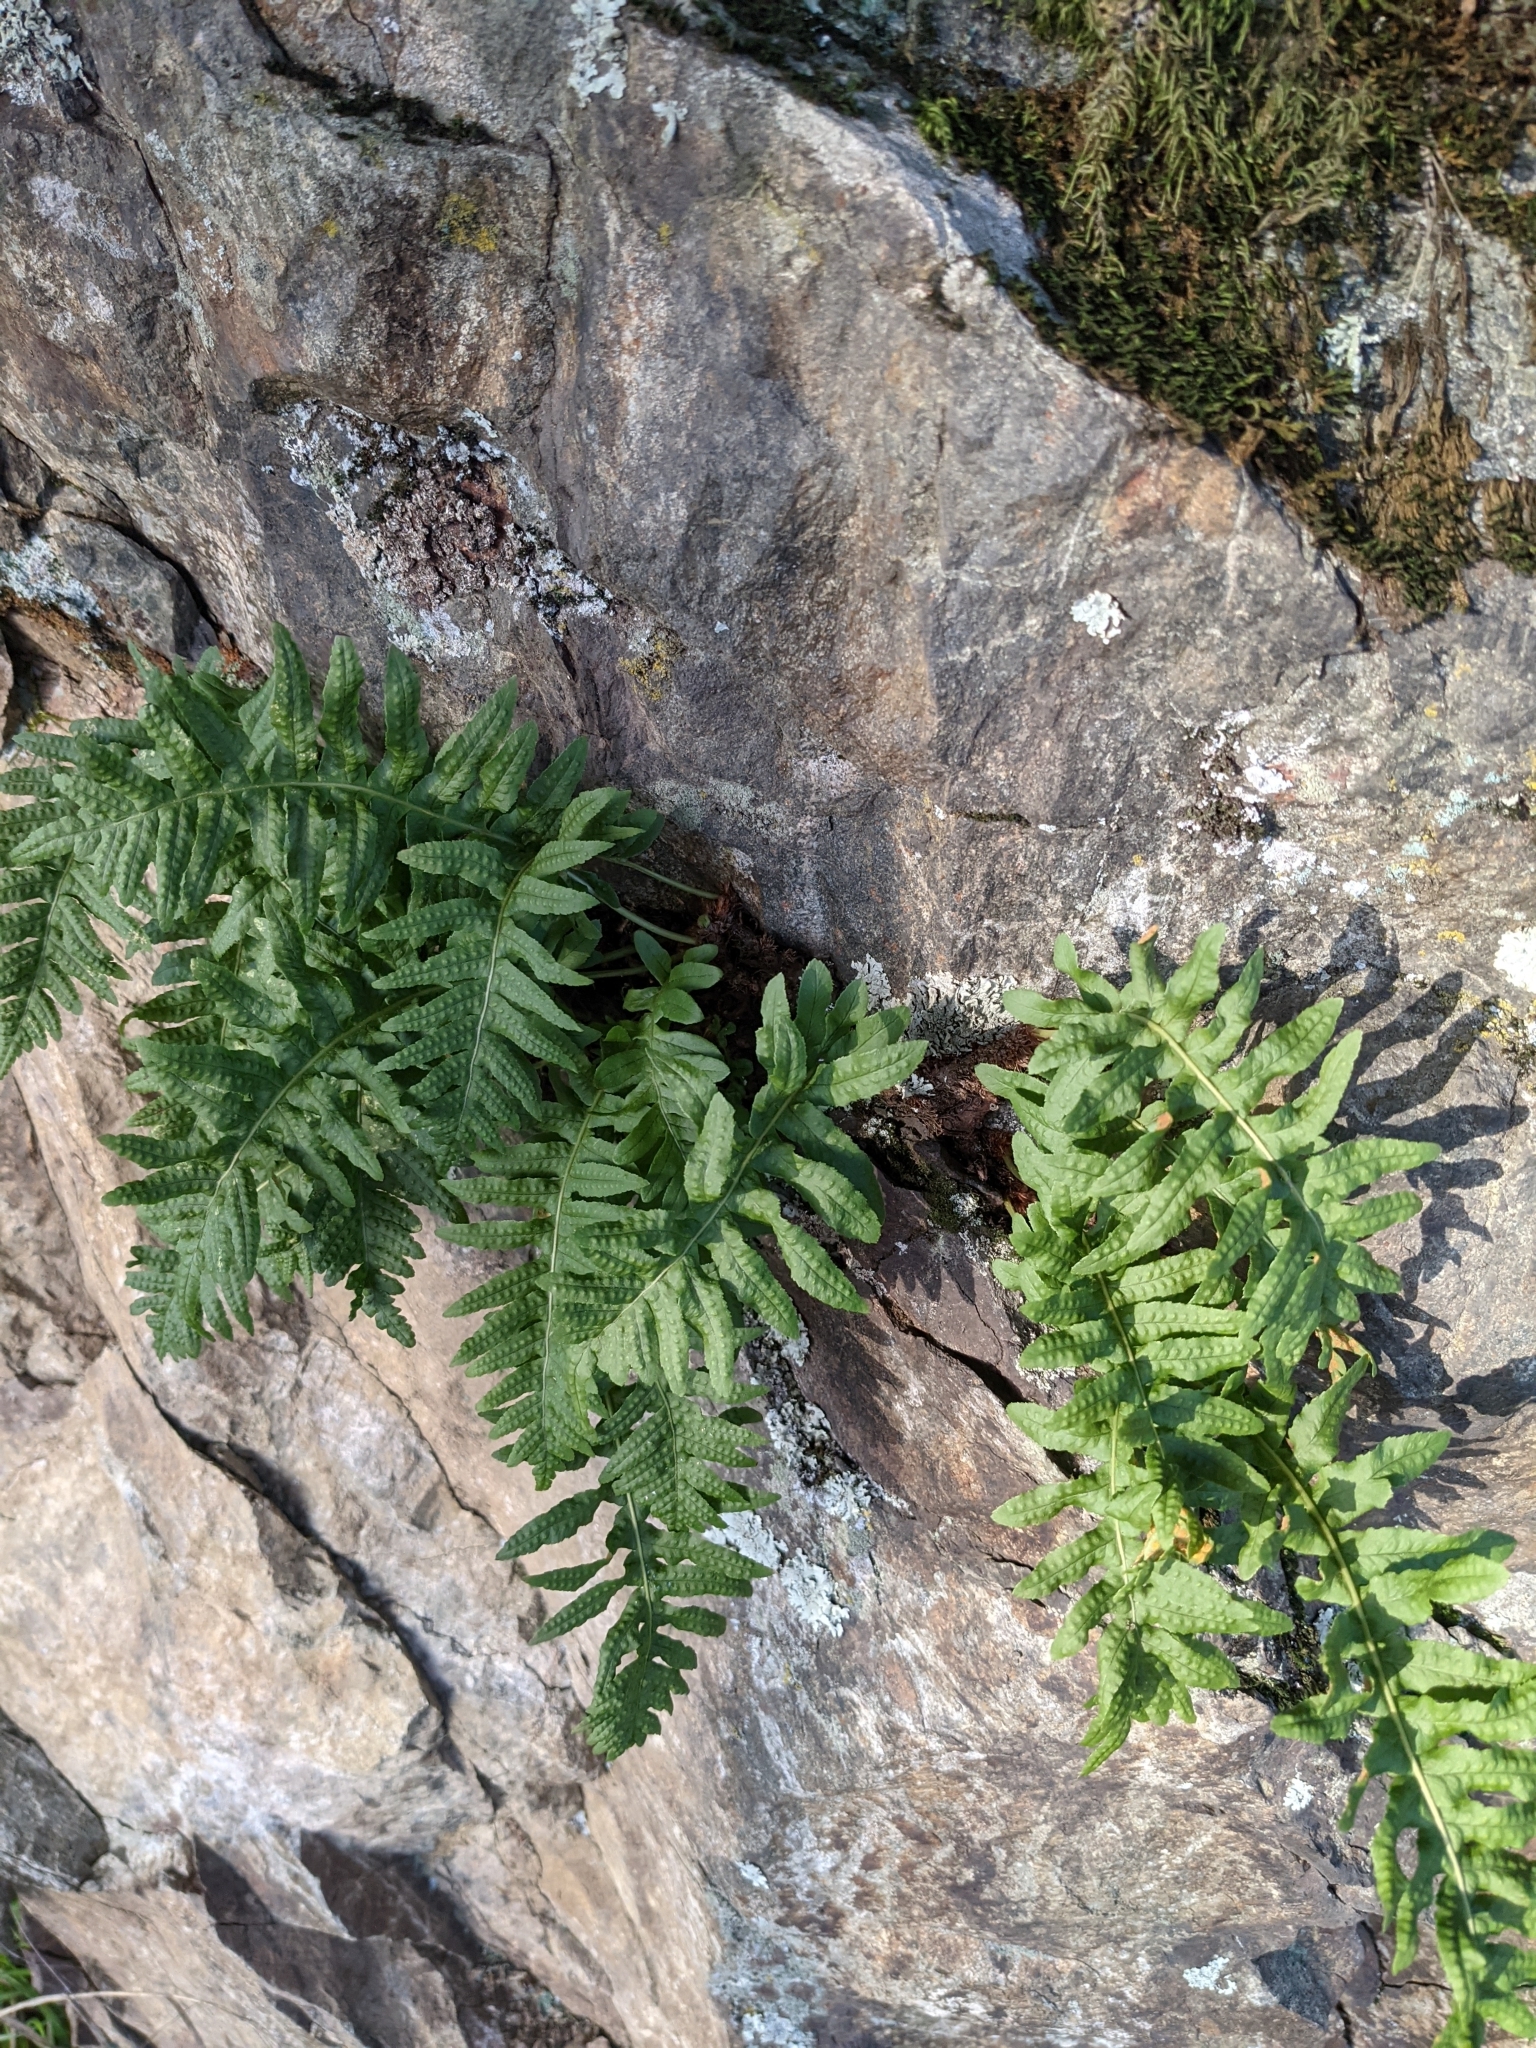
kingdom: Plantae
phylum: Tracheophyta
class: Polypodiopsida
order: Polypodiales
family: Polypodiaceae
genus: Polypodium
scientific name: Polypodium glycyrrhiza
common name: Licorice fern
